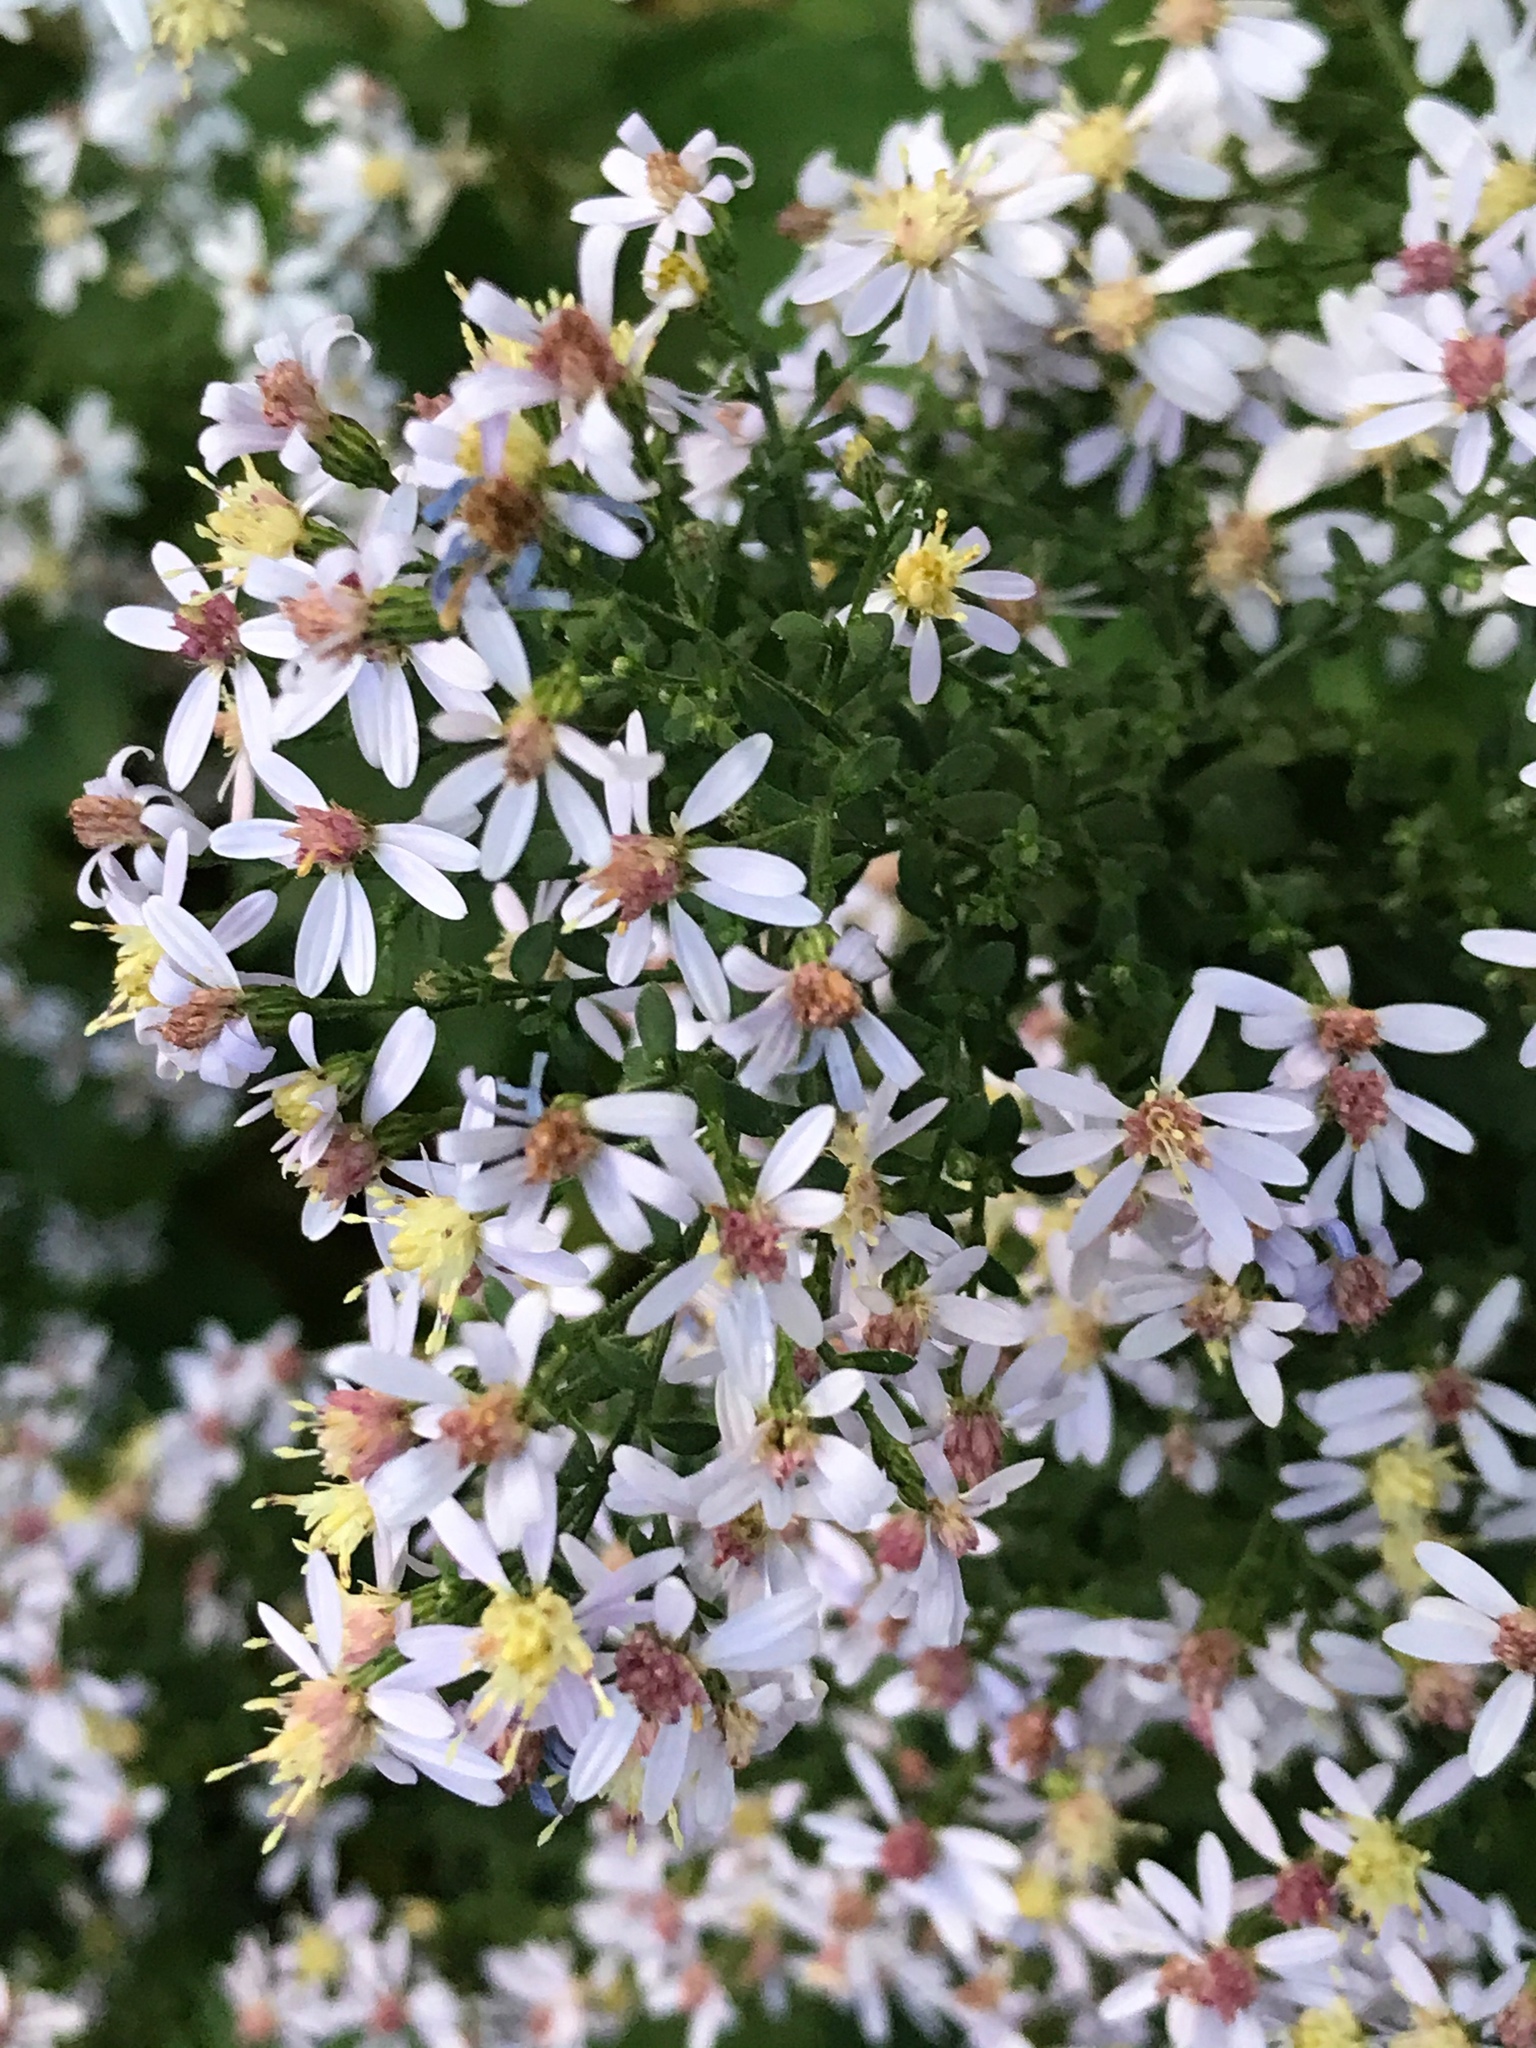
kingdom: Plantae
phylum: Tracheophyta
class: Magnoliopsida
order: Asterales
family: Asteraceae
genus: Symphyotrichum
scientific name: Symphyotrichum cordifolium
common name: Beeweed
